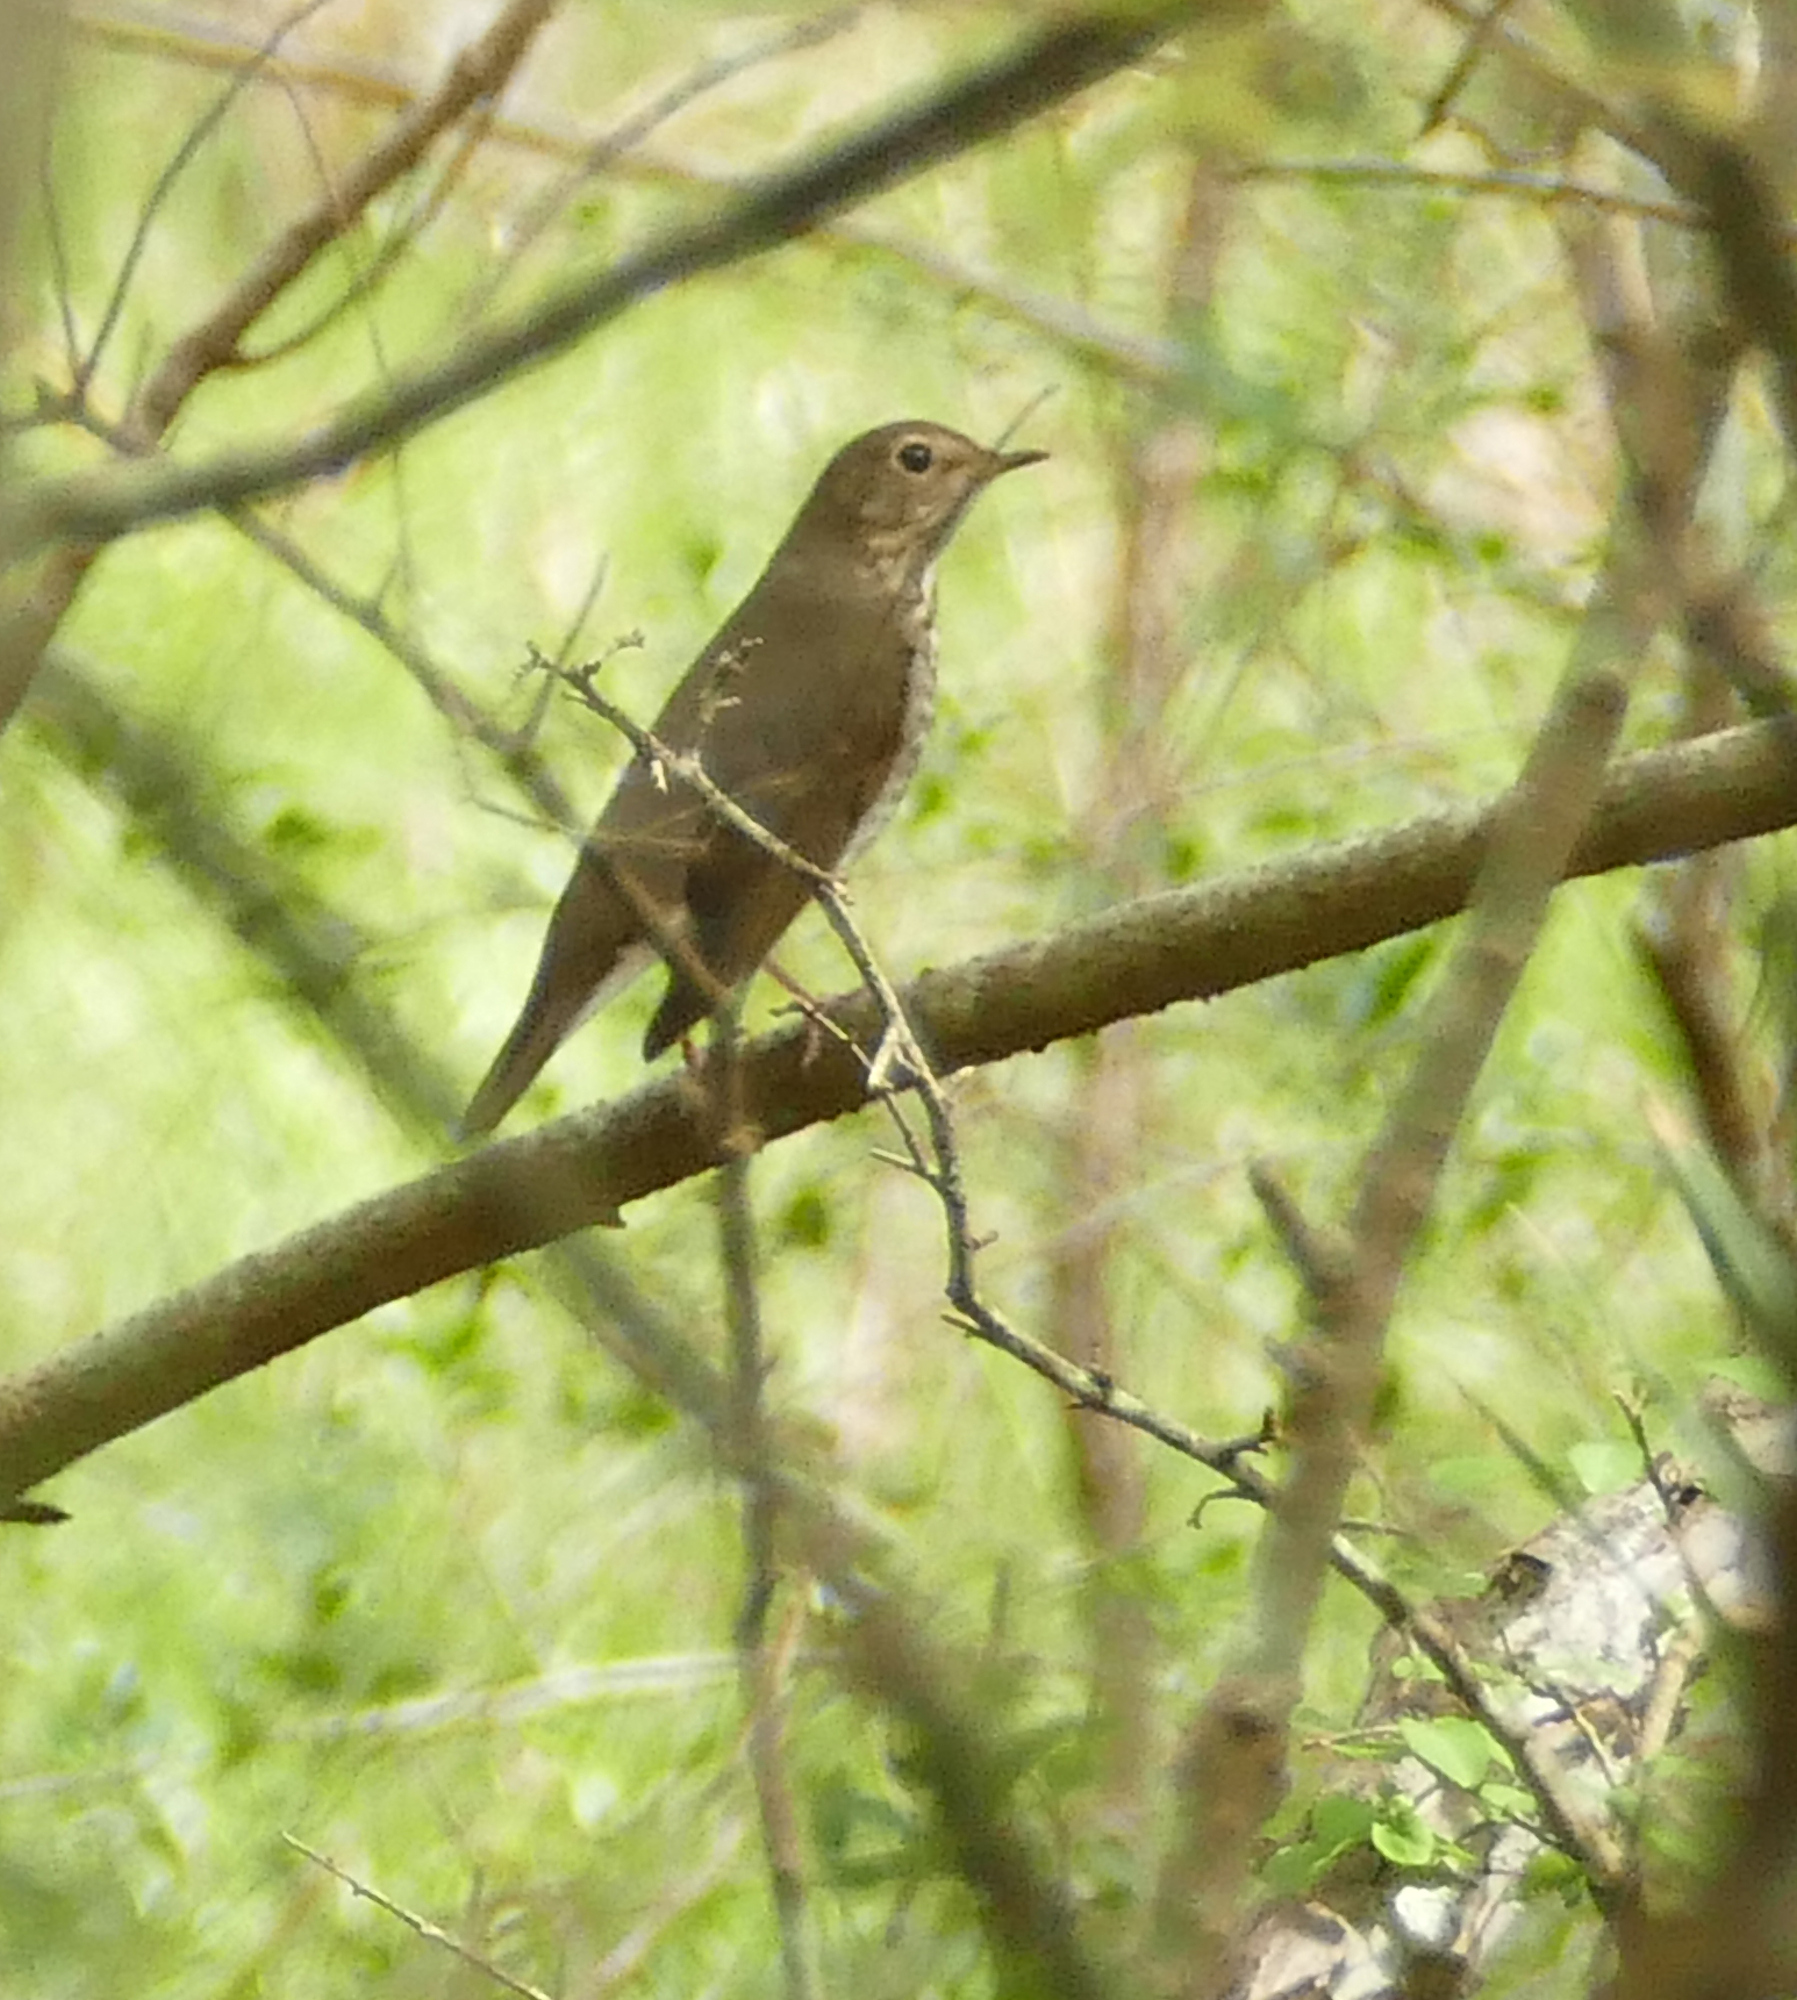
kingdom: Animalia
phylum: Chordata
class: Aves
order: Passeriformes
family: Turdidae
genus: Catharus
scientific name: Catharus ustulatus
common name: Swainson's thrush
